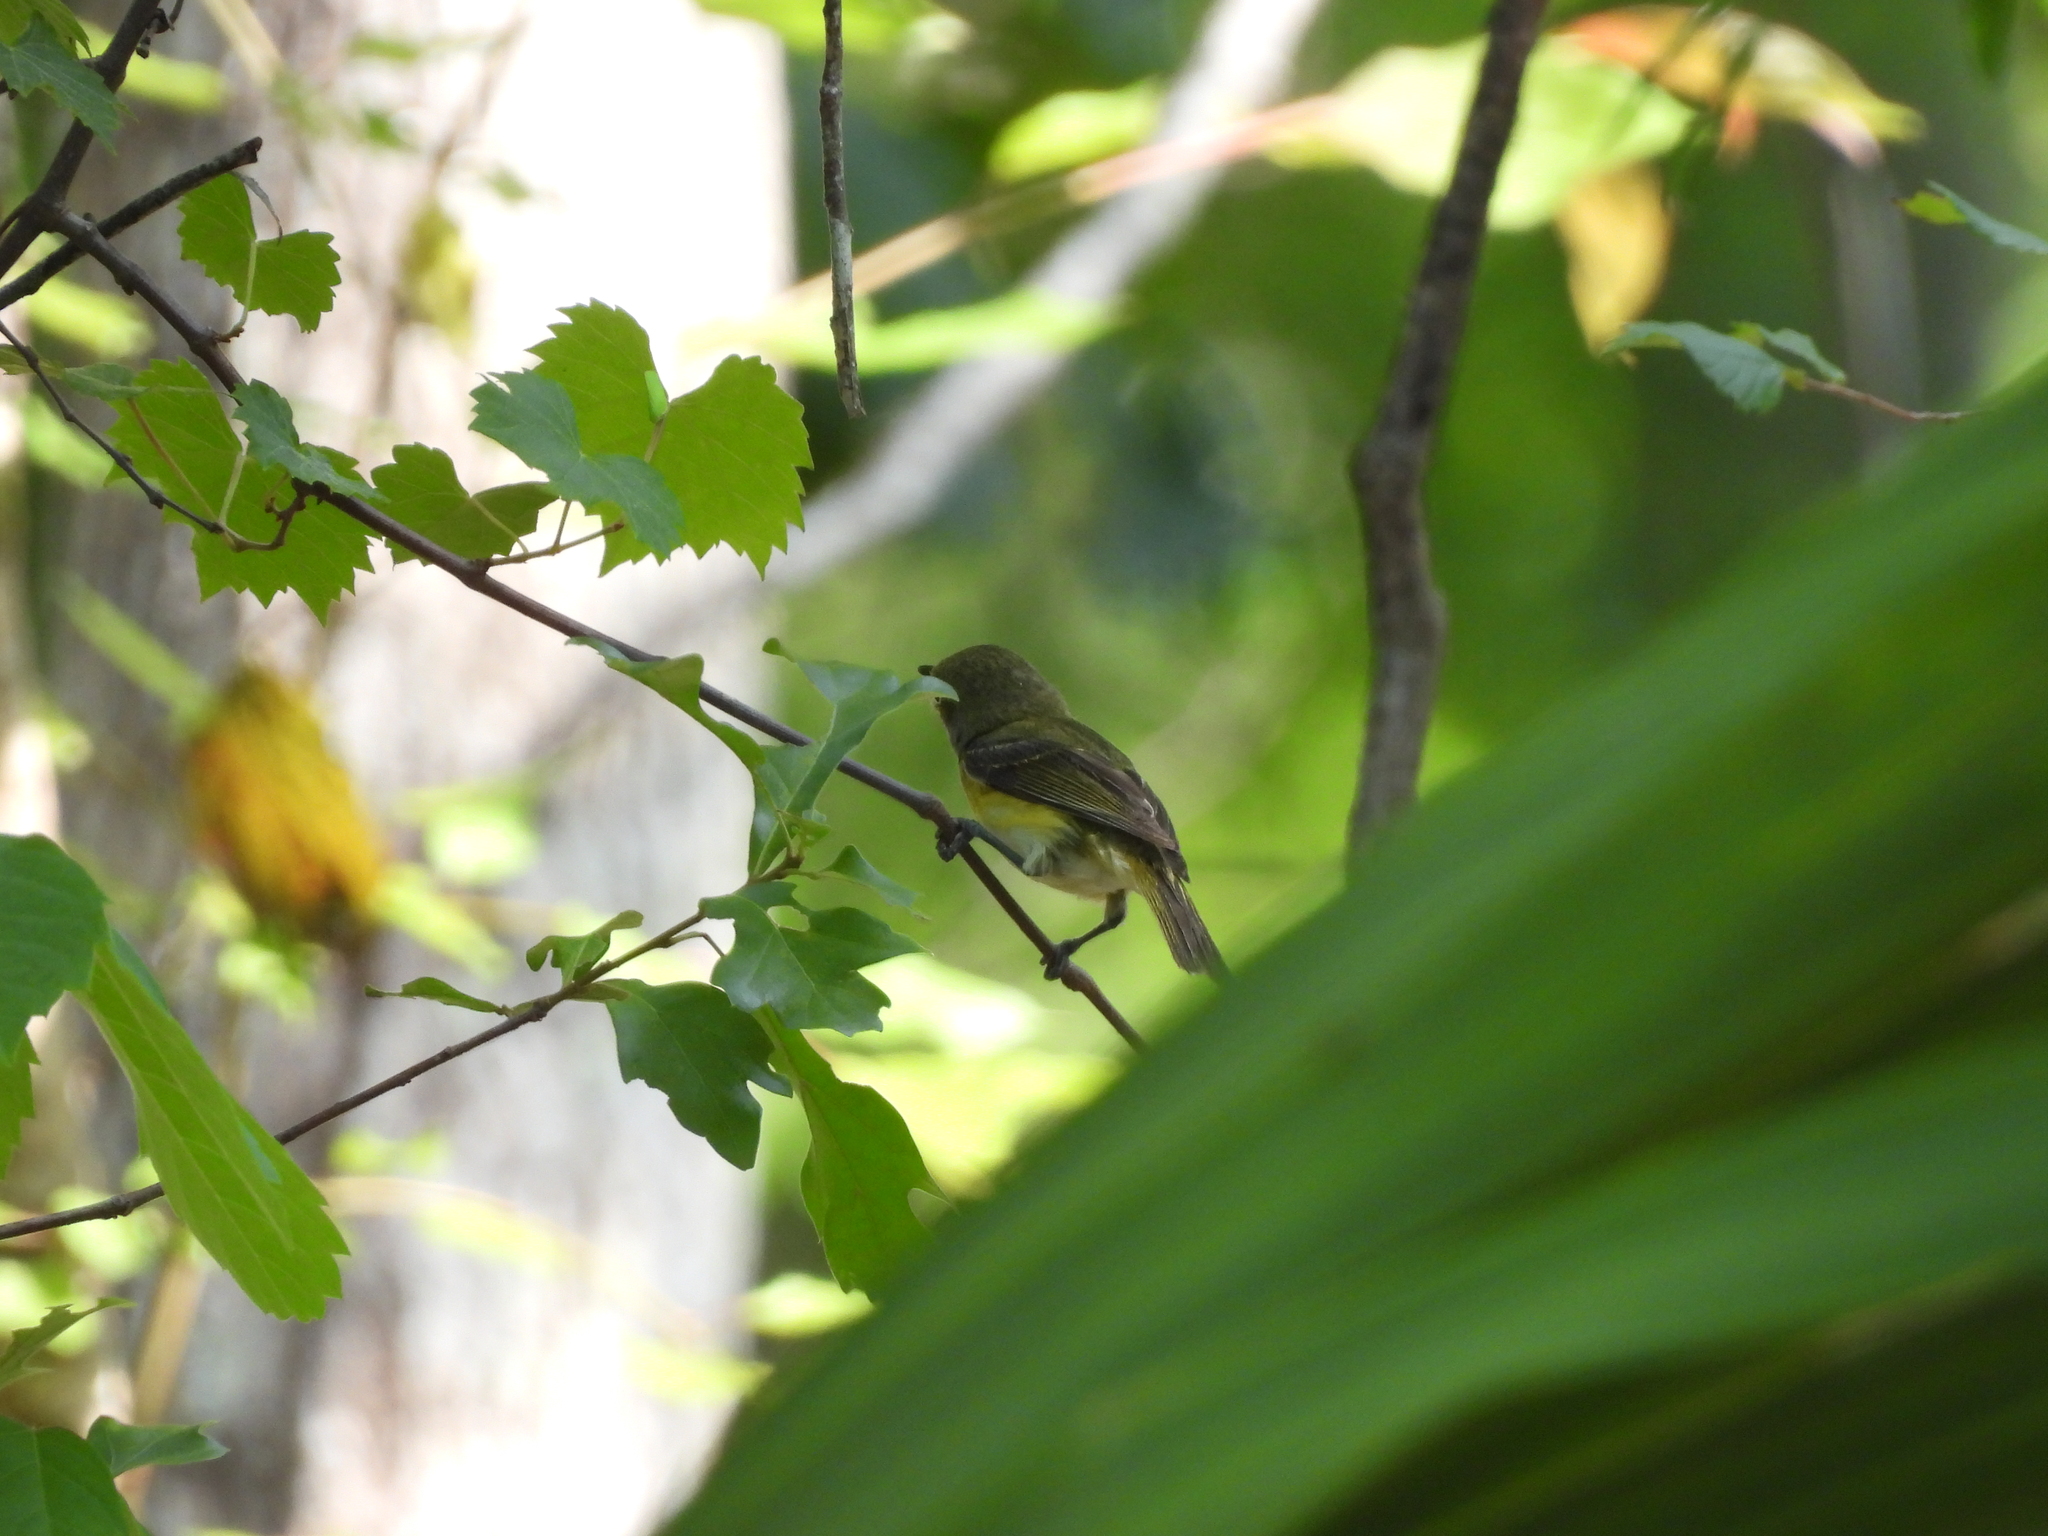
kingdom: Animalia
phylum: Chordata
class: Aves
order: Passeriformes
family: Vireonidae
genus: Vireo
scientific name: Vireo griseus
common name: White-eyed vireo
